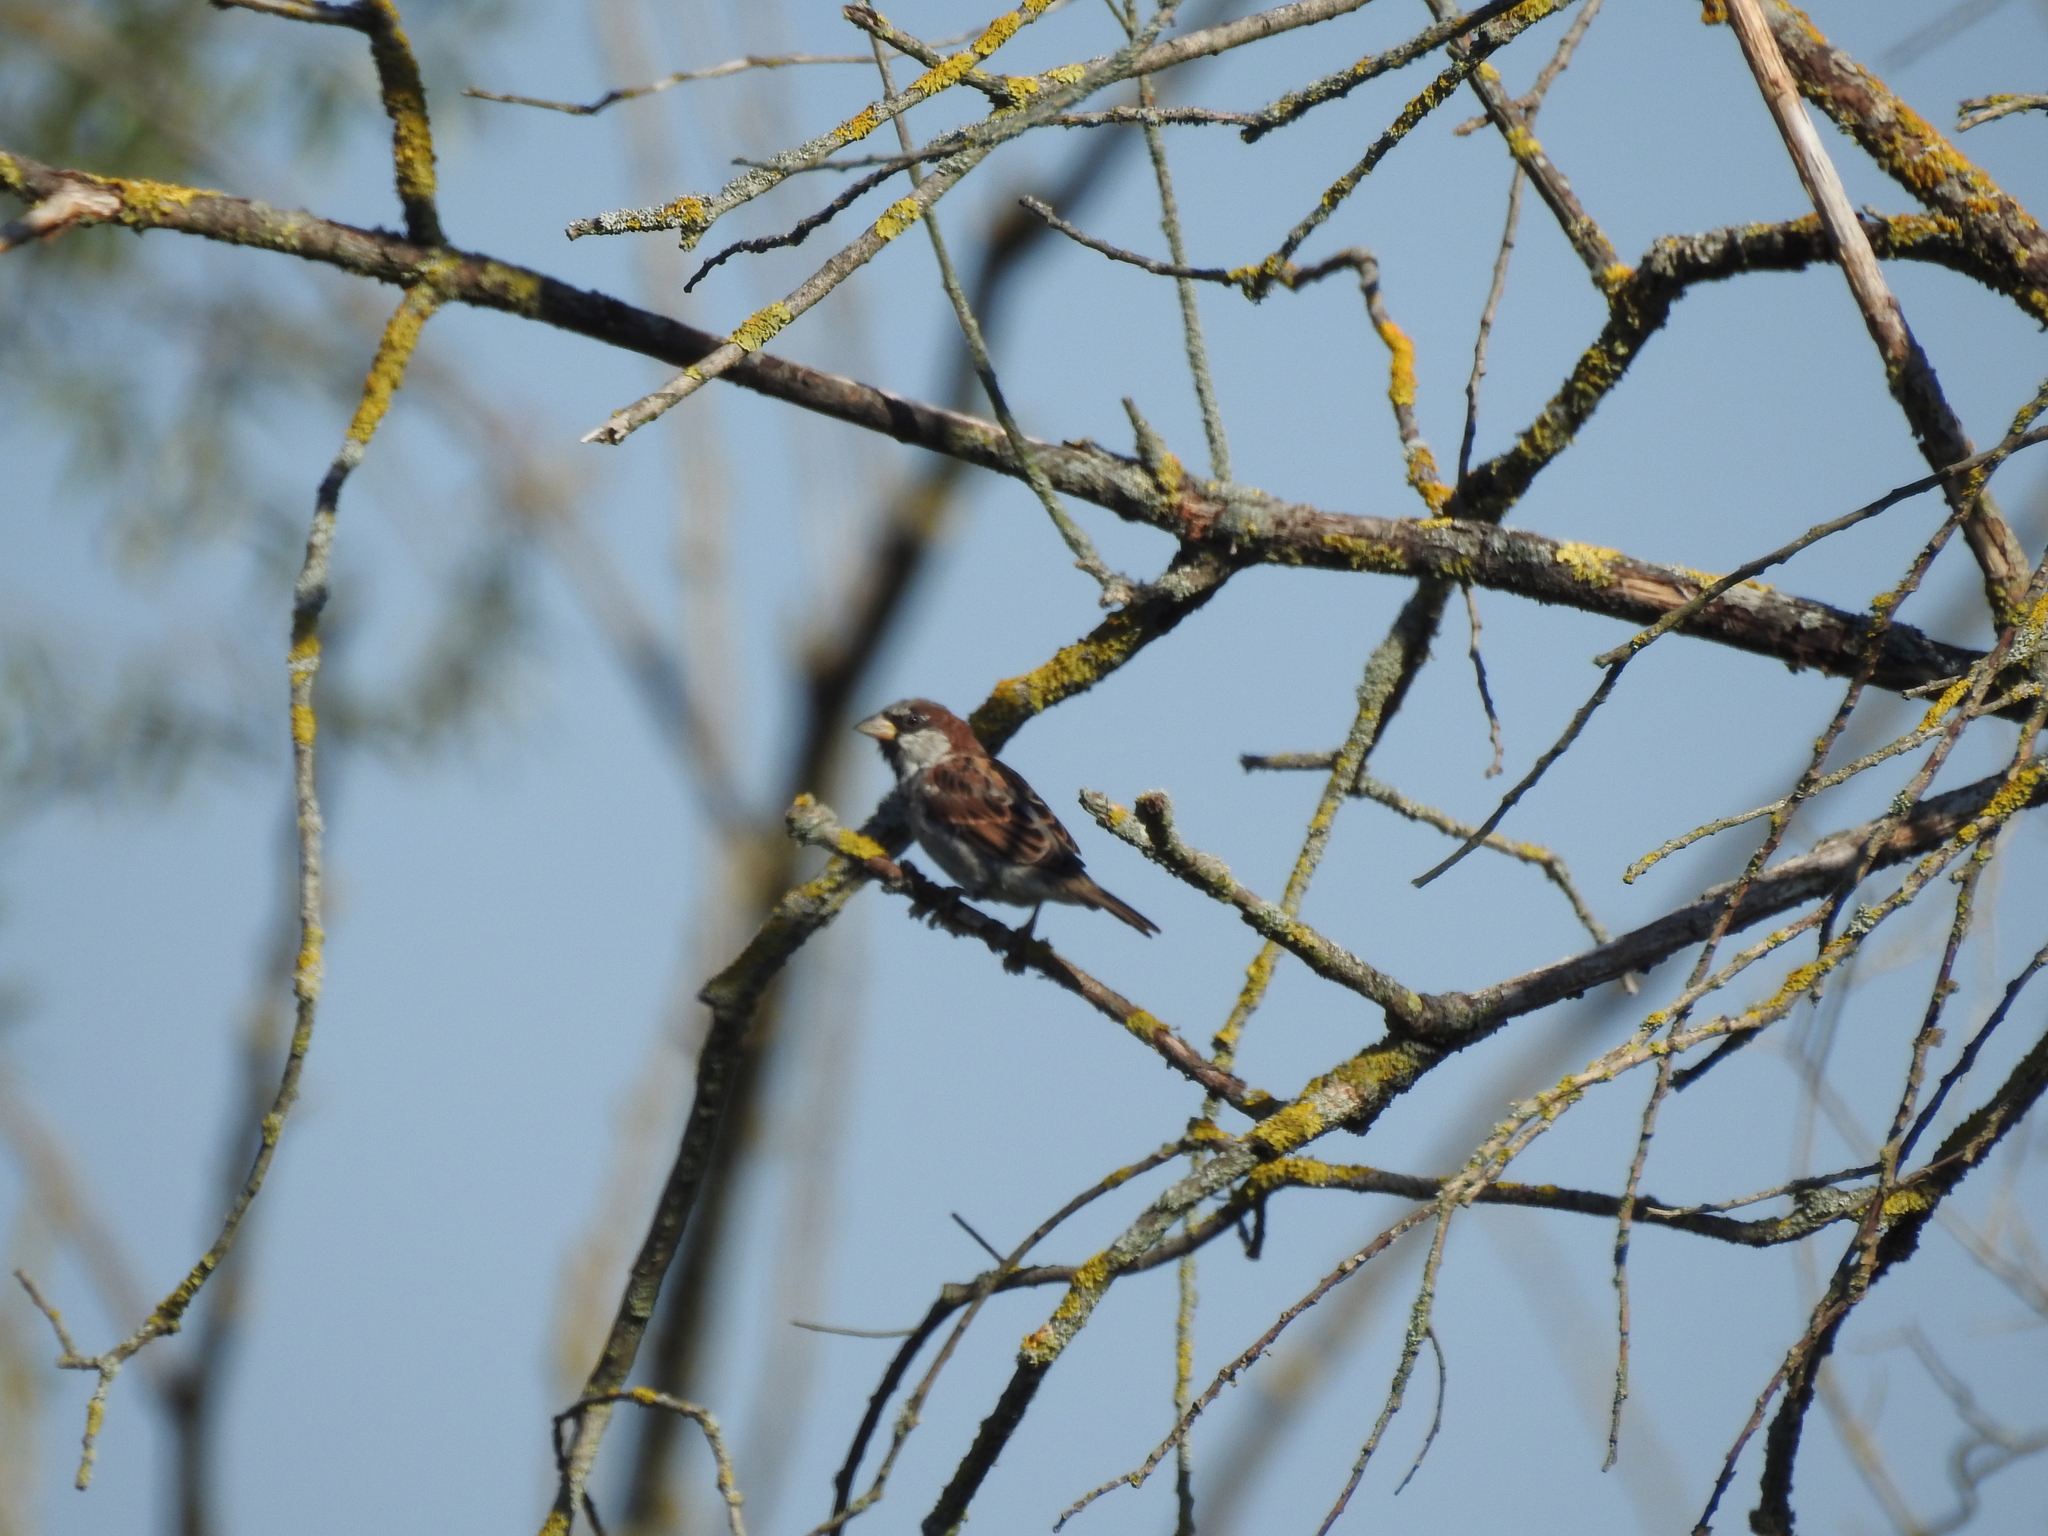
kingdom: Animalia
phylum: Chordata
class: Aves
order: Passeriformes
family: Passeridae
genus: Passer
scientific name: Passer domesticus
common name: House sparrow
